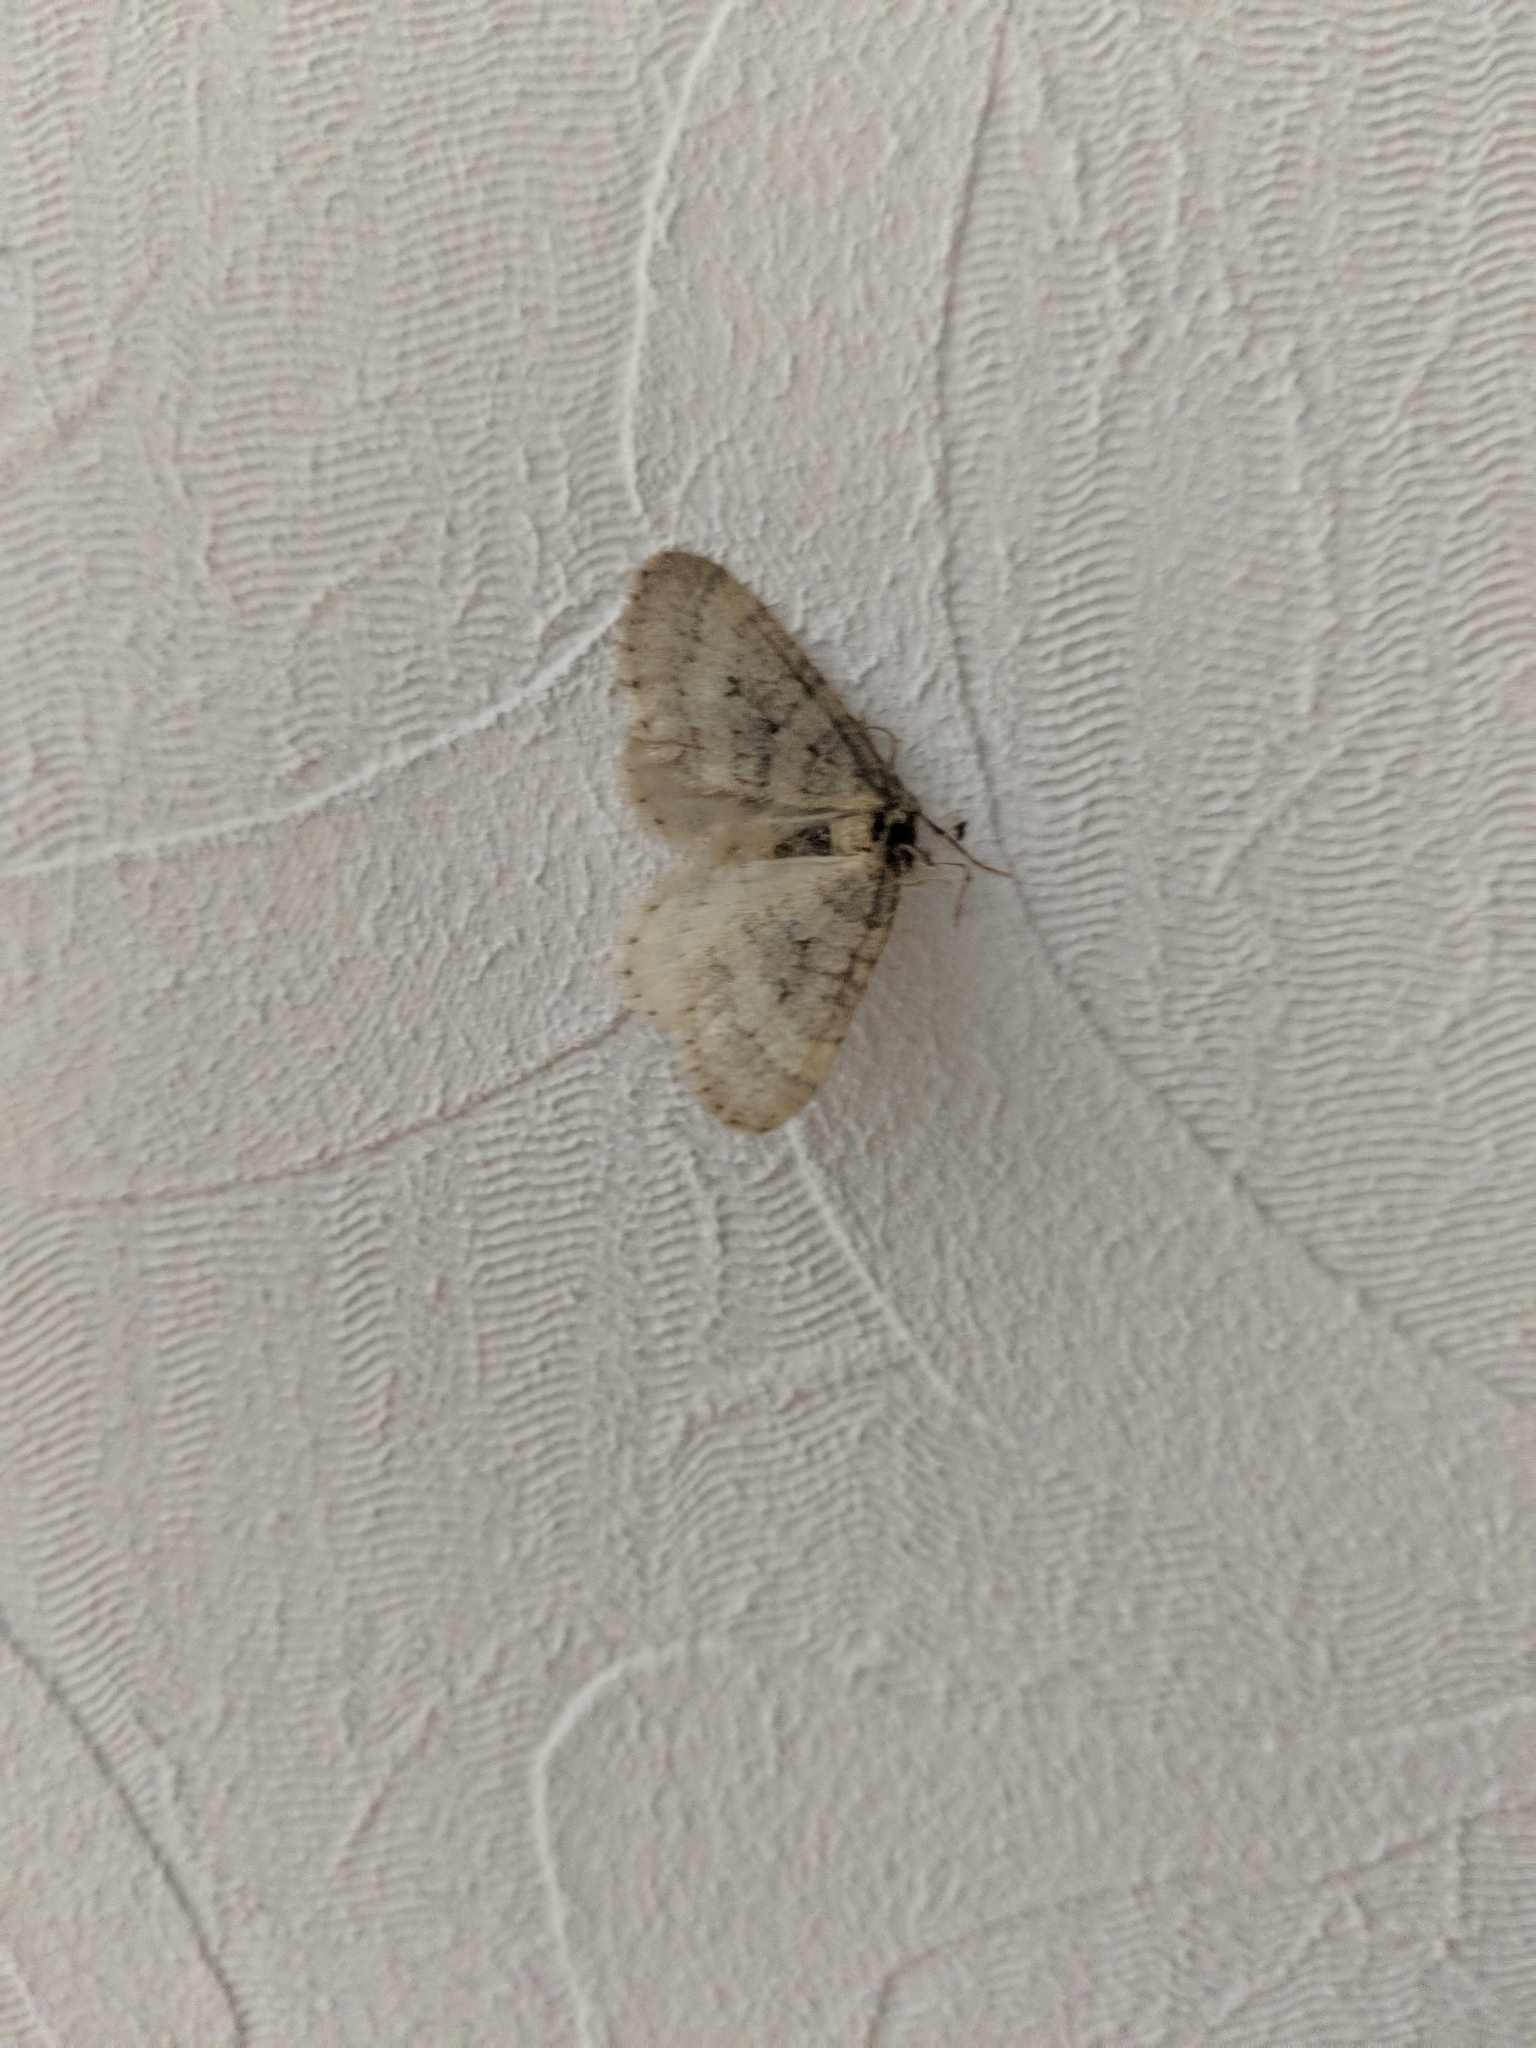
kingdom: Animalia
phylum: Arthropoda
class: Insecta
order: Lepidoptera
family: Geometridae
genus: Operophtera
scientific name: Operophtera brumata
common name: Winter moth
